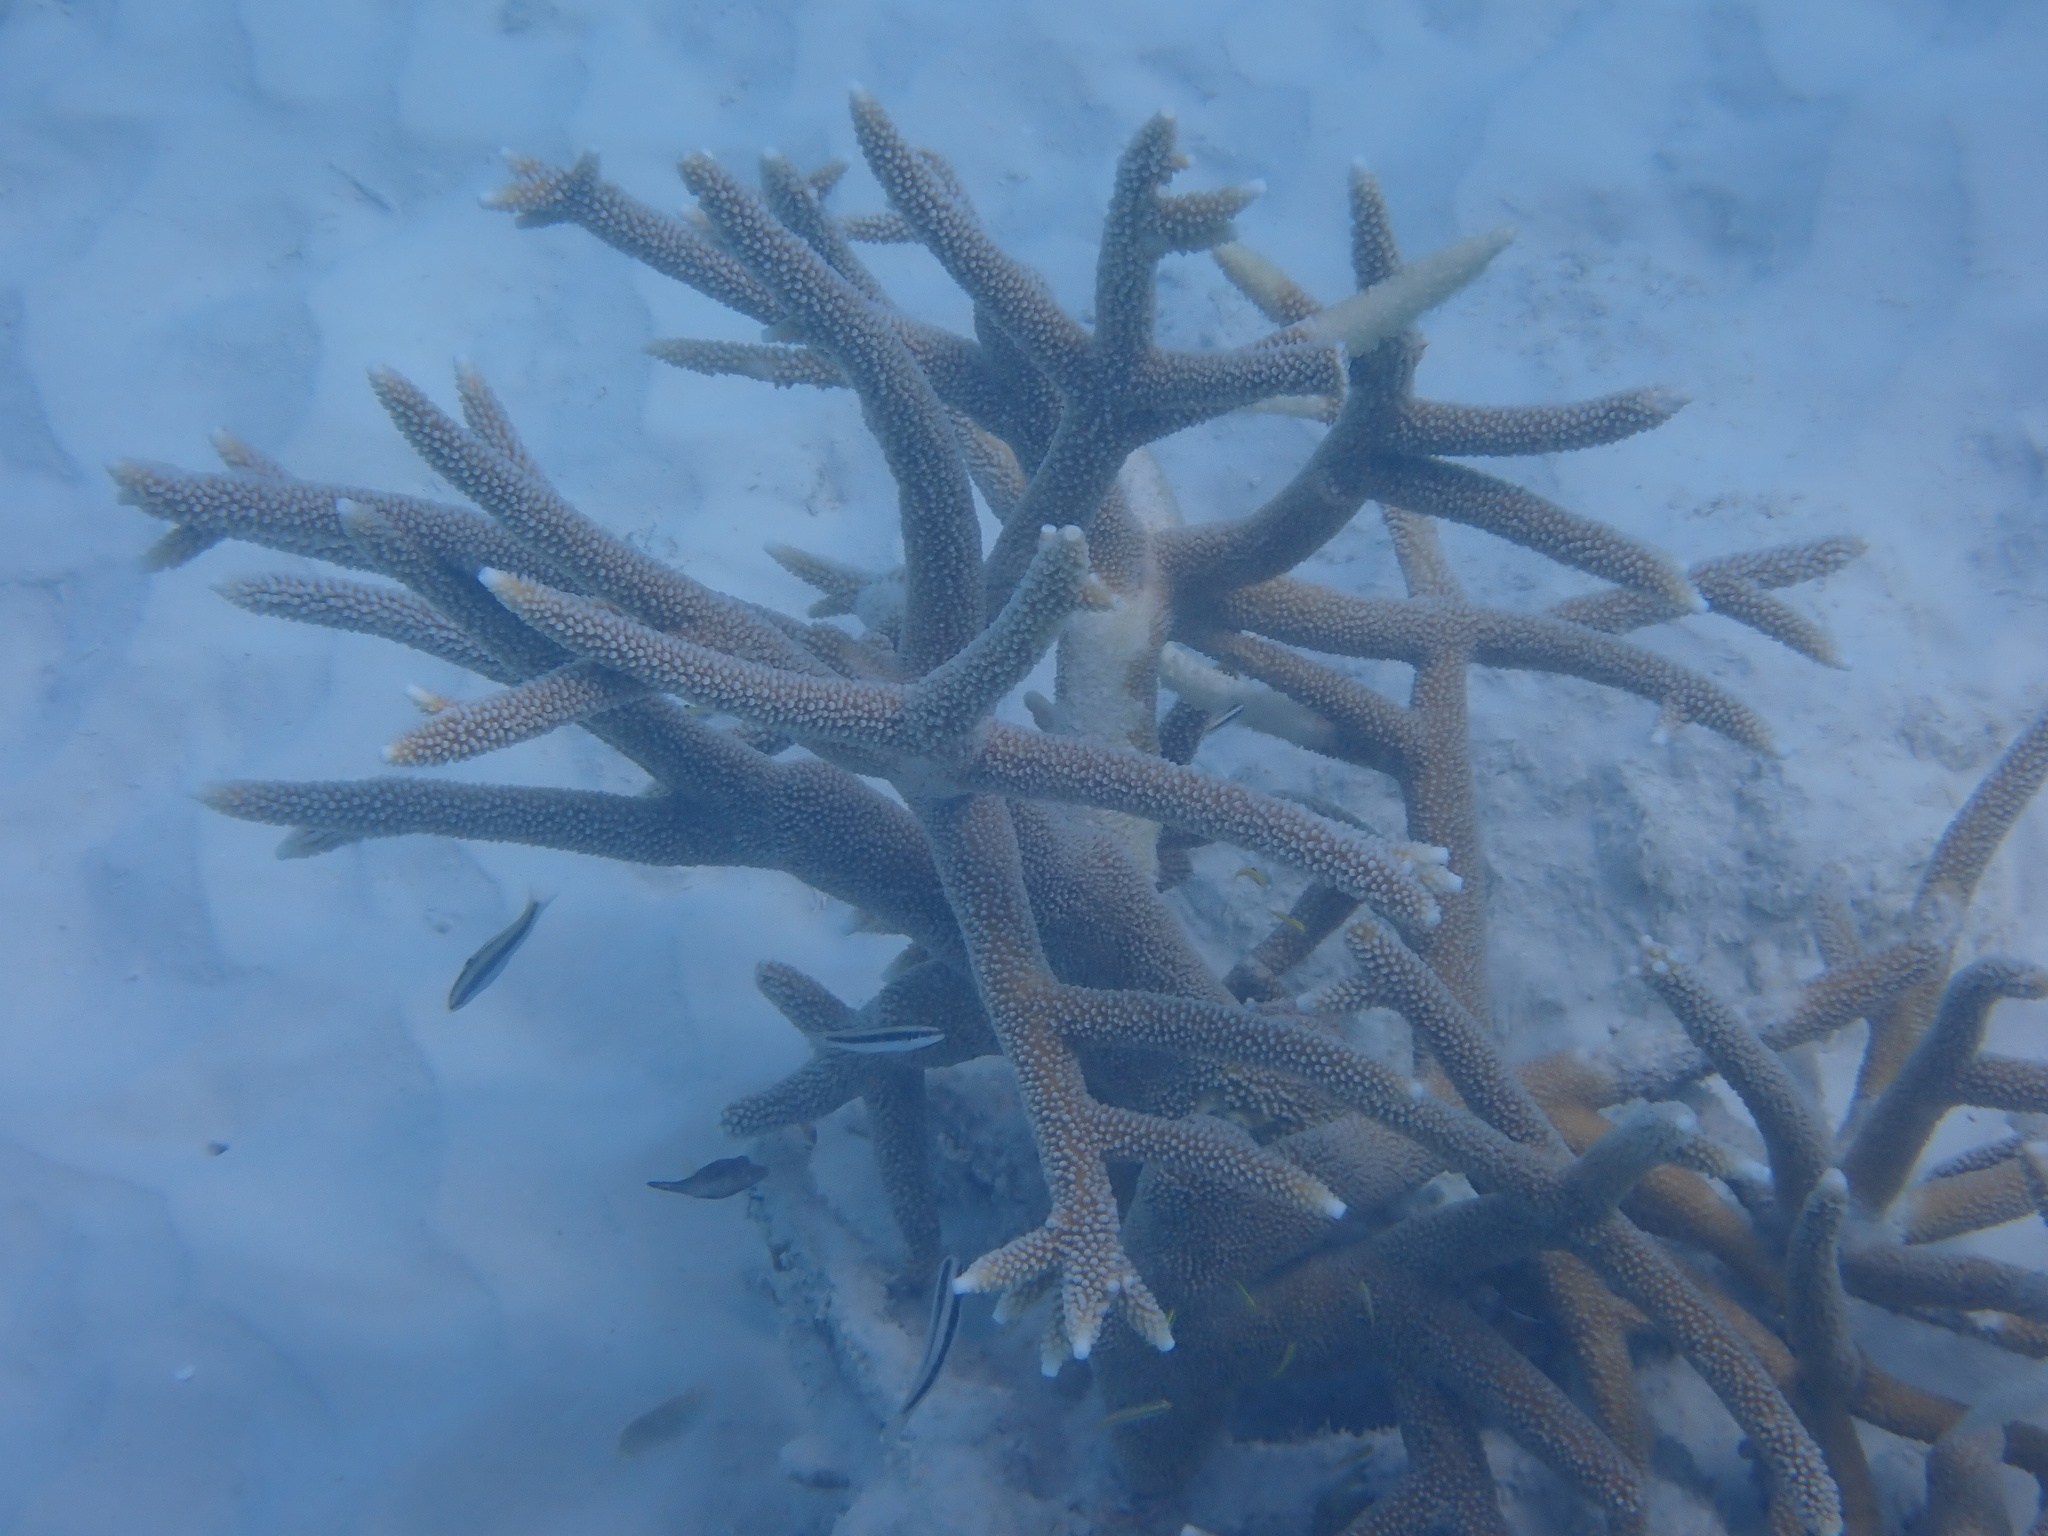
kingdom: Animalia
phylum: Cnidaria
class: Anthozoa
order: Scleractinia
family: Acroporidae
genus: Acropora
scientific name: Acropora cervicornis
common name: Staghorn coral
